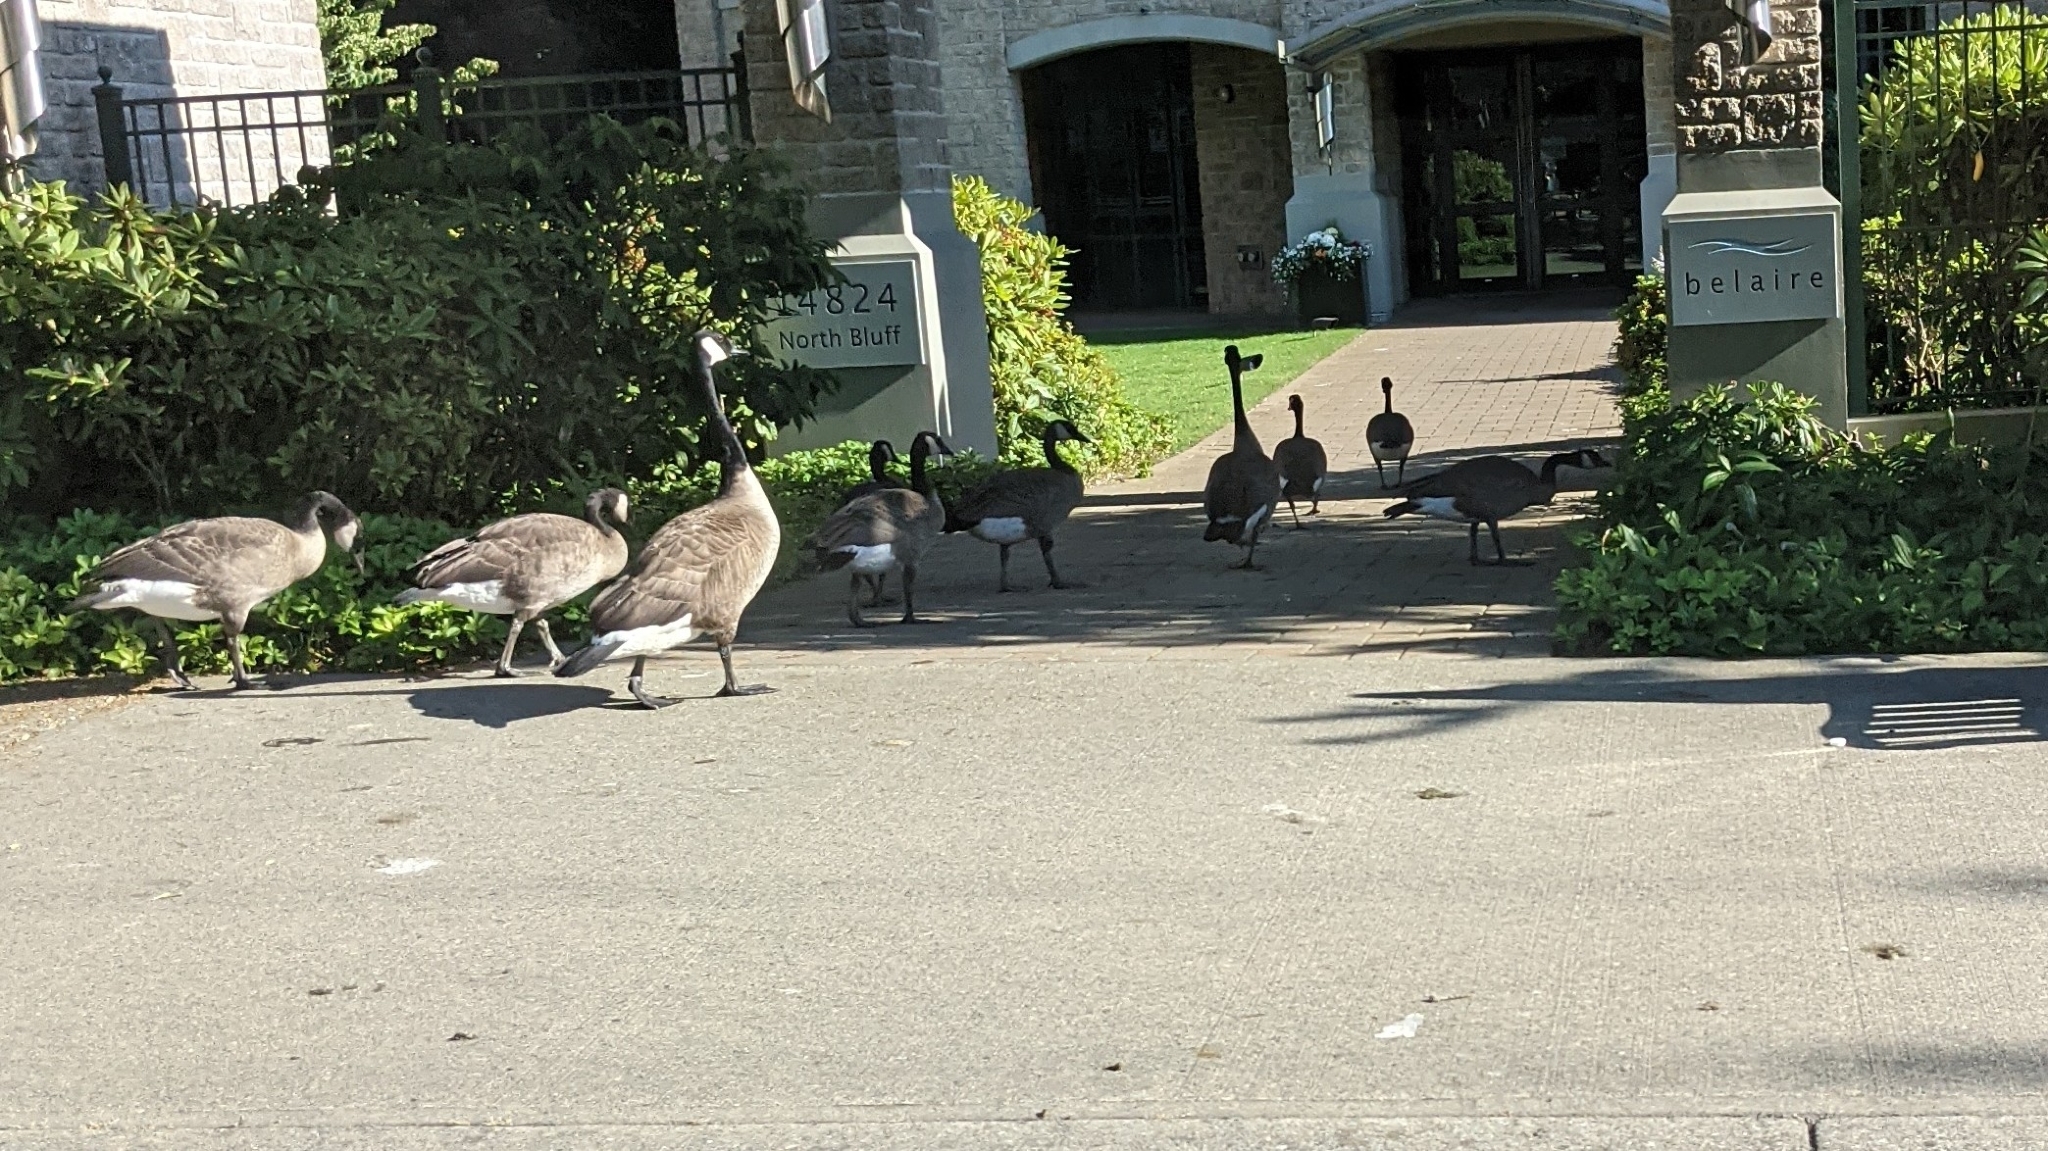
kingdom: Animalia
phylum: Chordata
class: Aves
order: Anseriformes
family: Anatidae
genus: Branta
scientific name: Branta canadensis
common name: Canada goose
